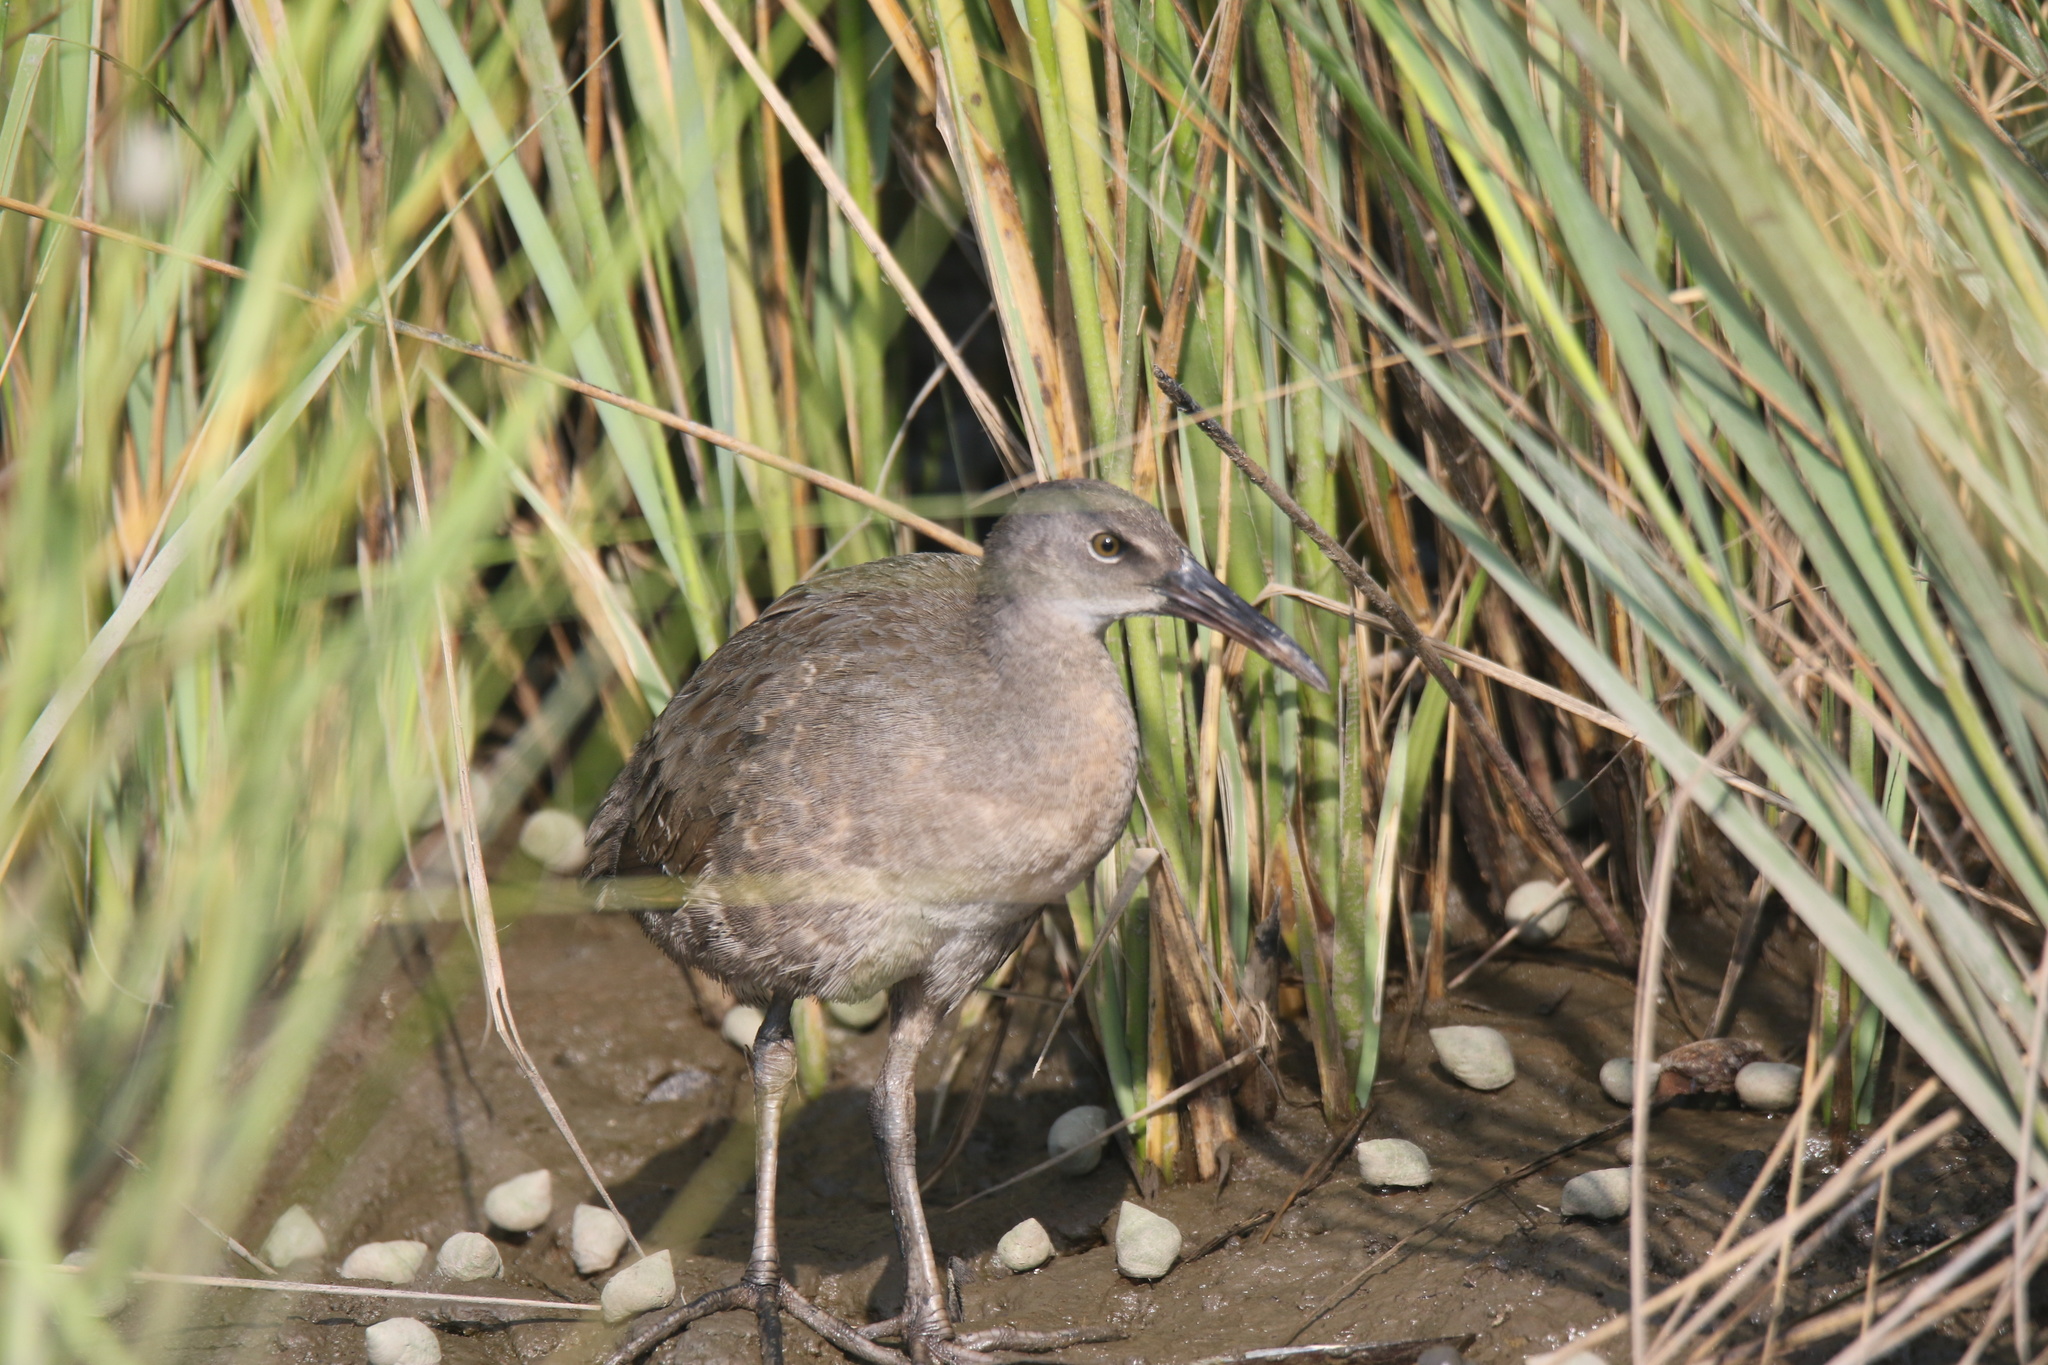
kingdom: Animalia
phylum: Chordata
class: Aves
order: Gruiformes
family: Rallidae
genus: Rallus
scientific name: Rallus crepitans
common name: Clapper rail
